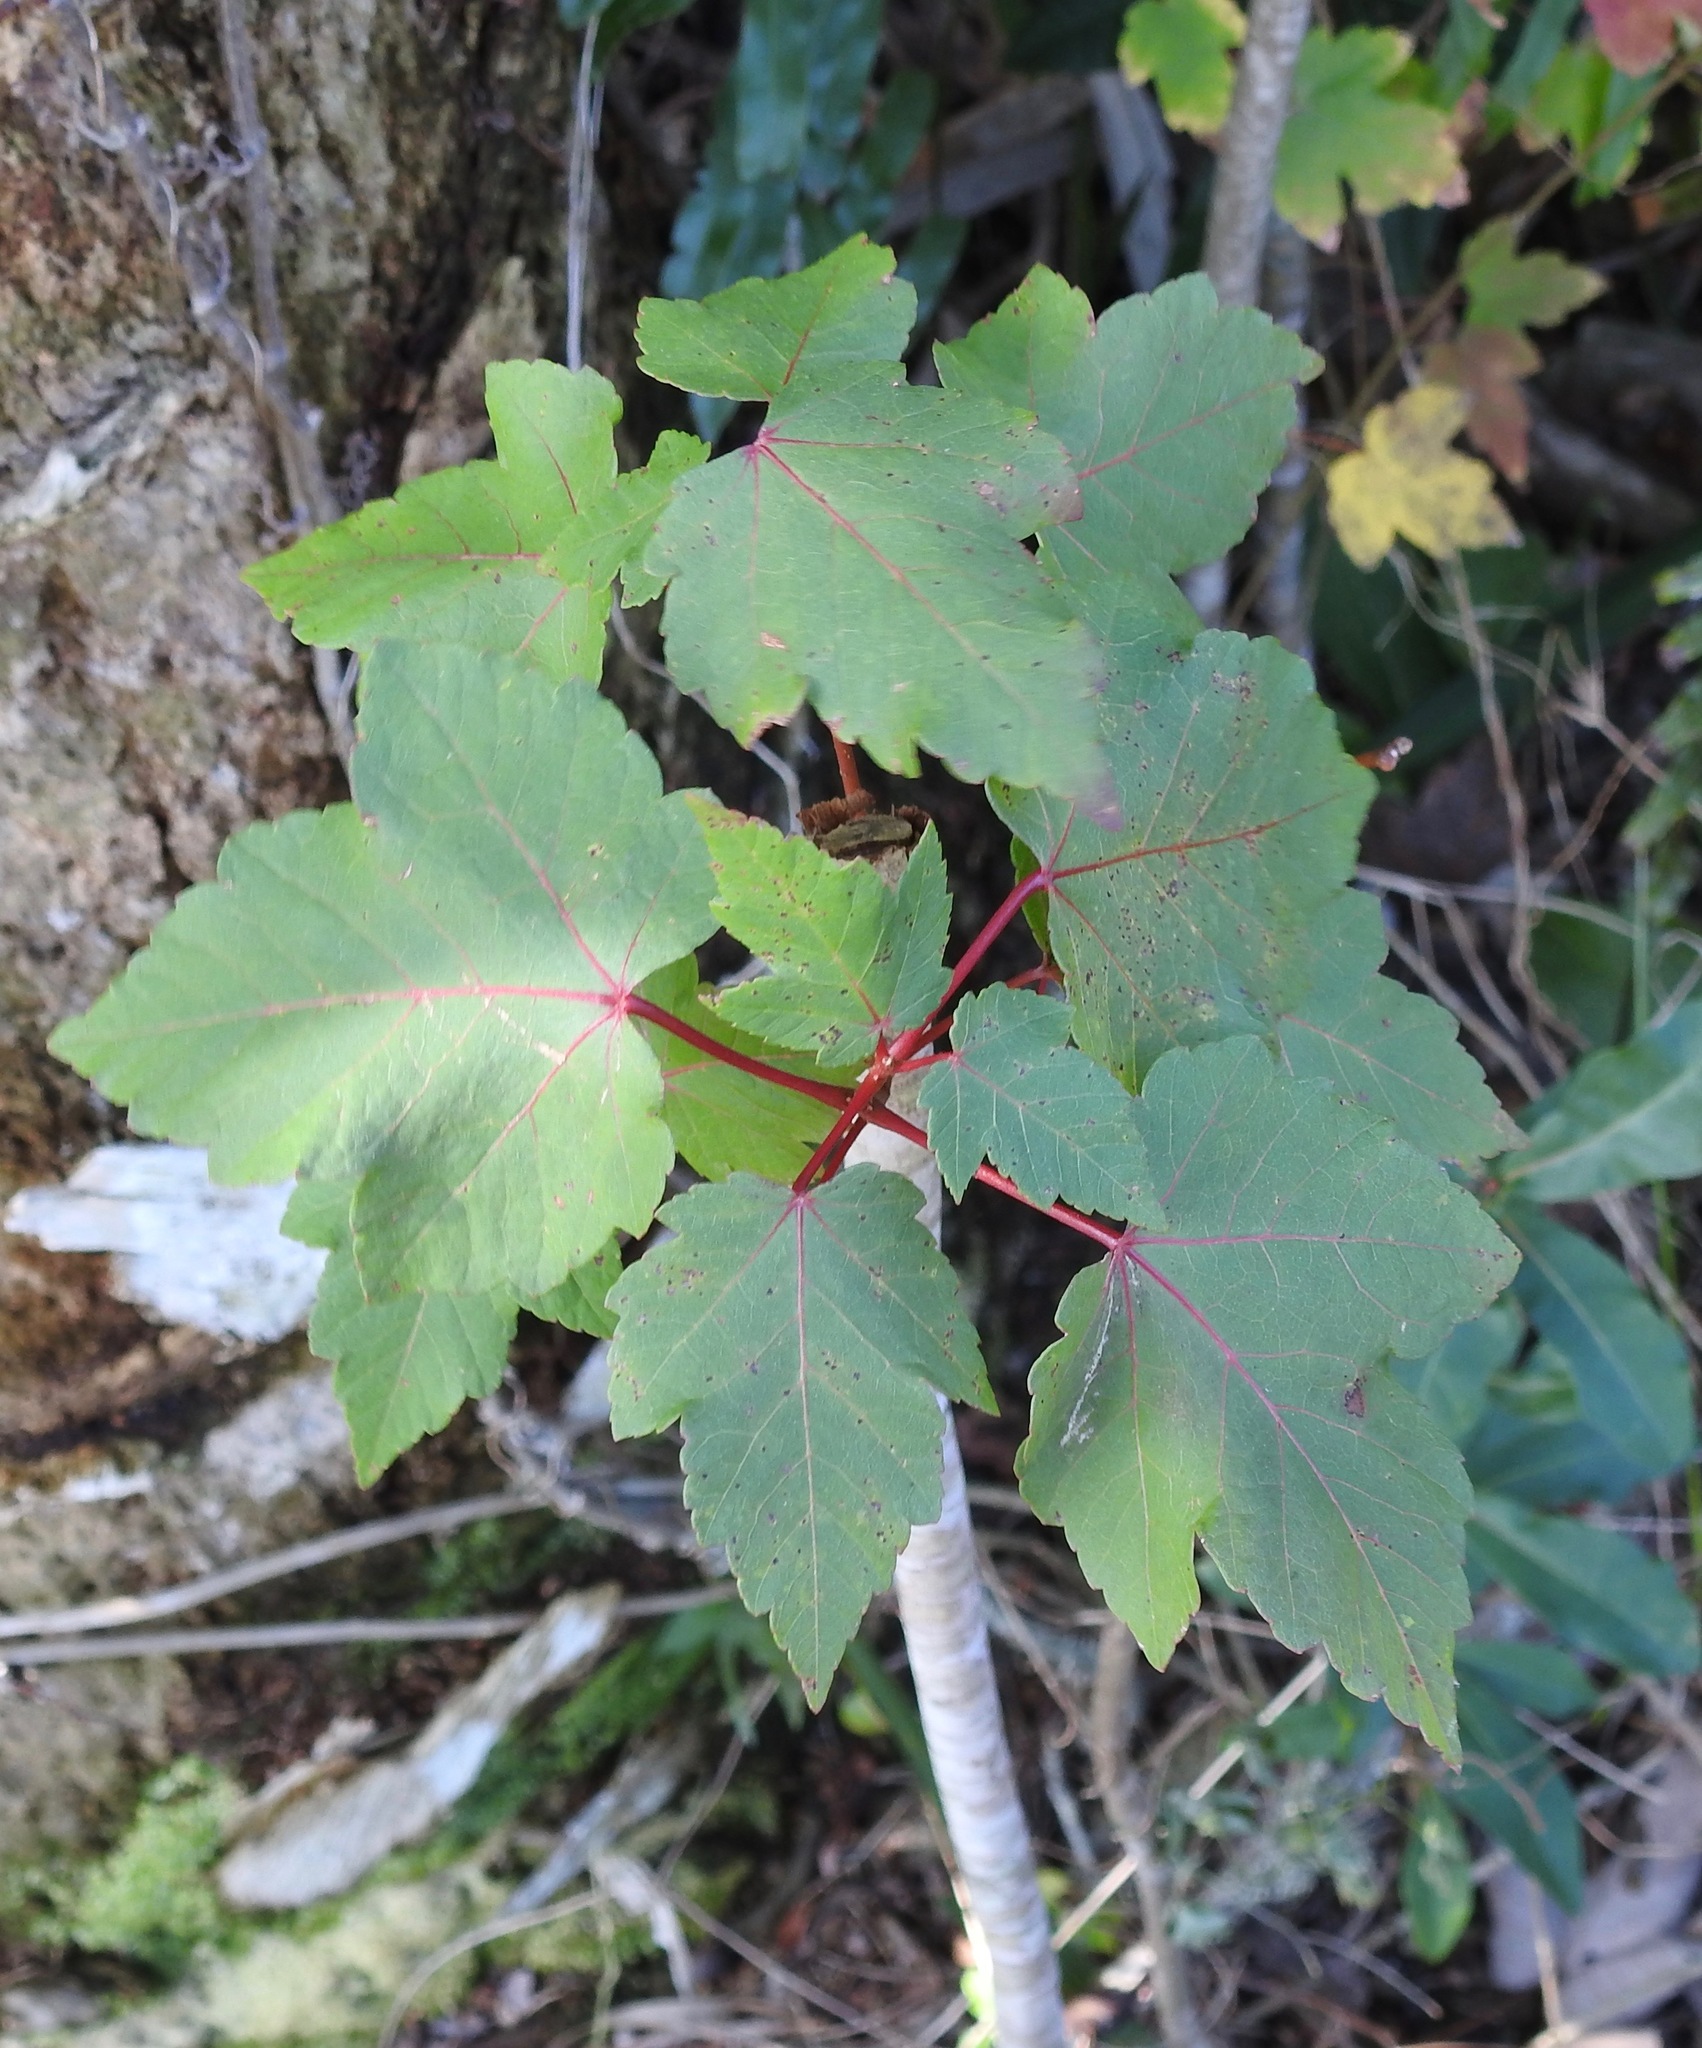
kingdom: Plantae
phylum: Tracheophyta
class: Magnoliopsida
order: Sapindales
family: Sapindaceae
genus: Acer
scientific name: Acer rubrum
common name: Red maple
